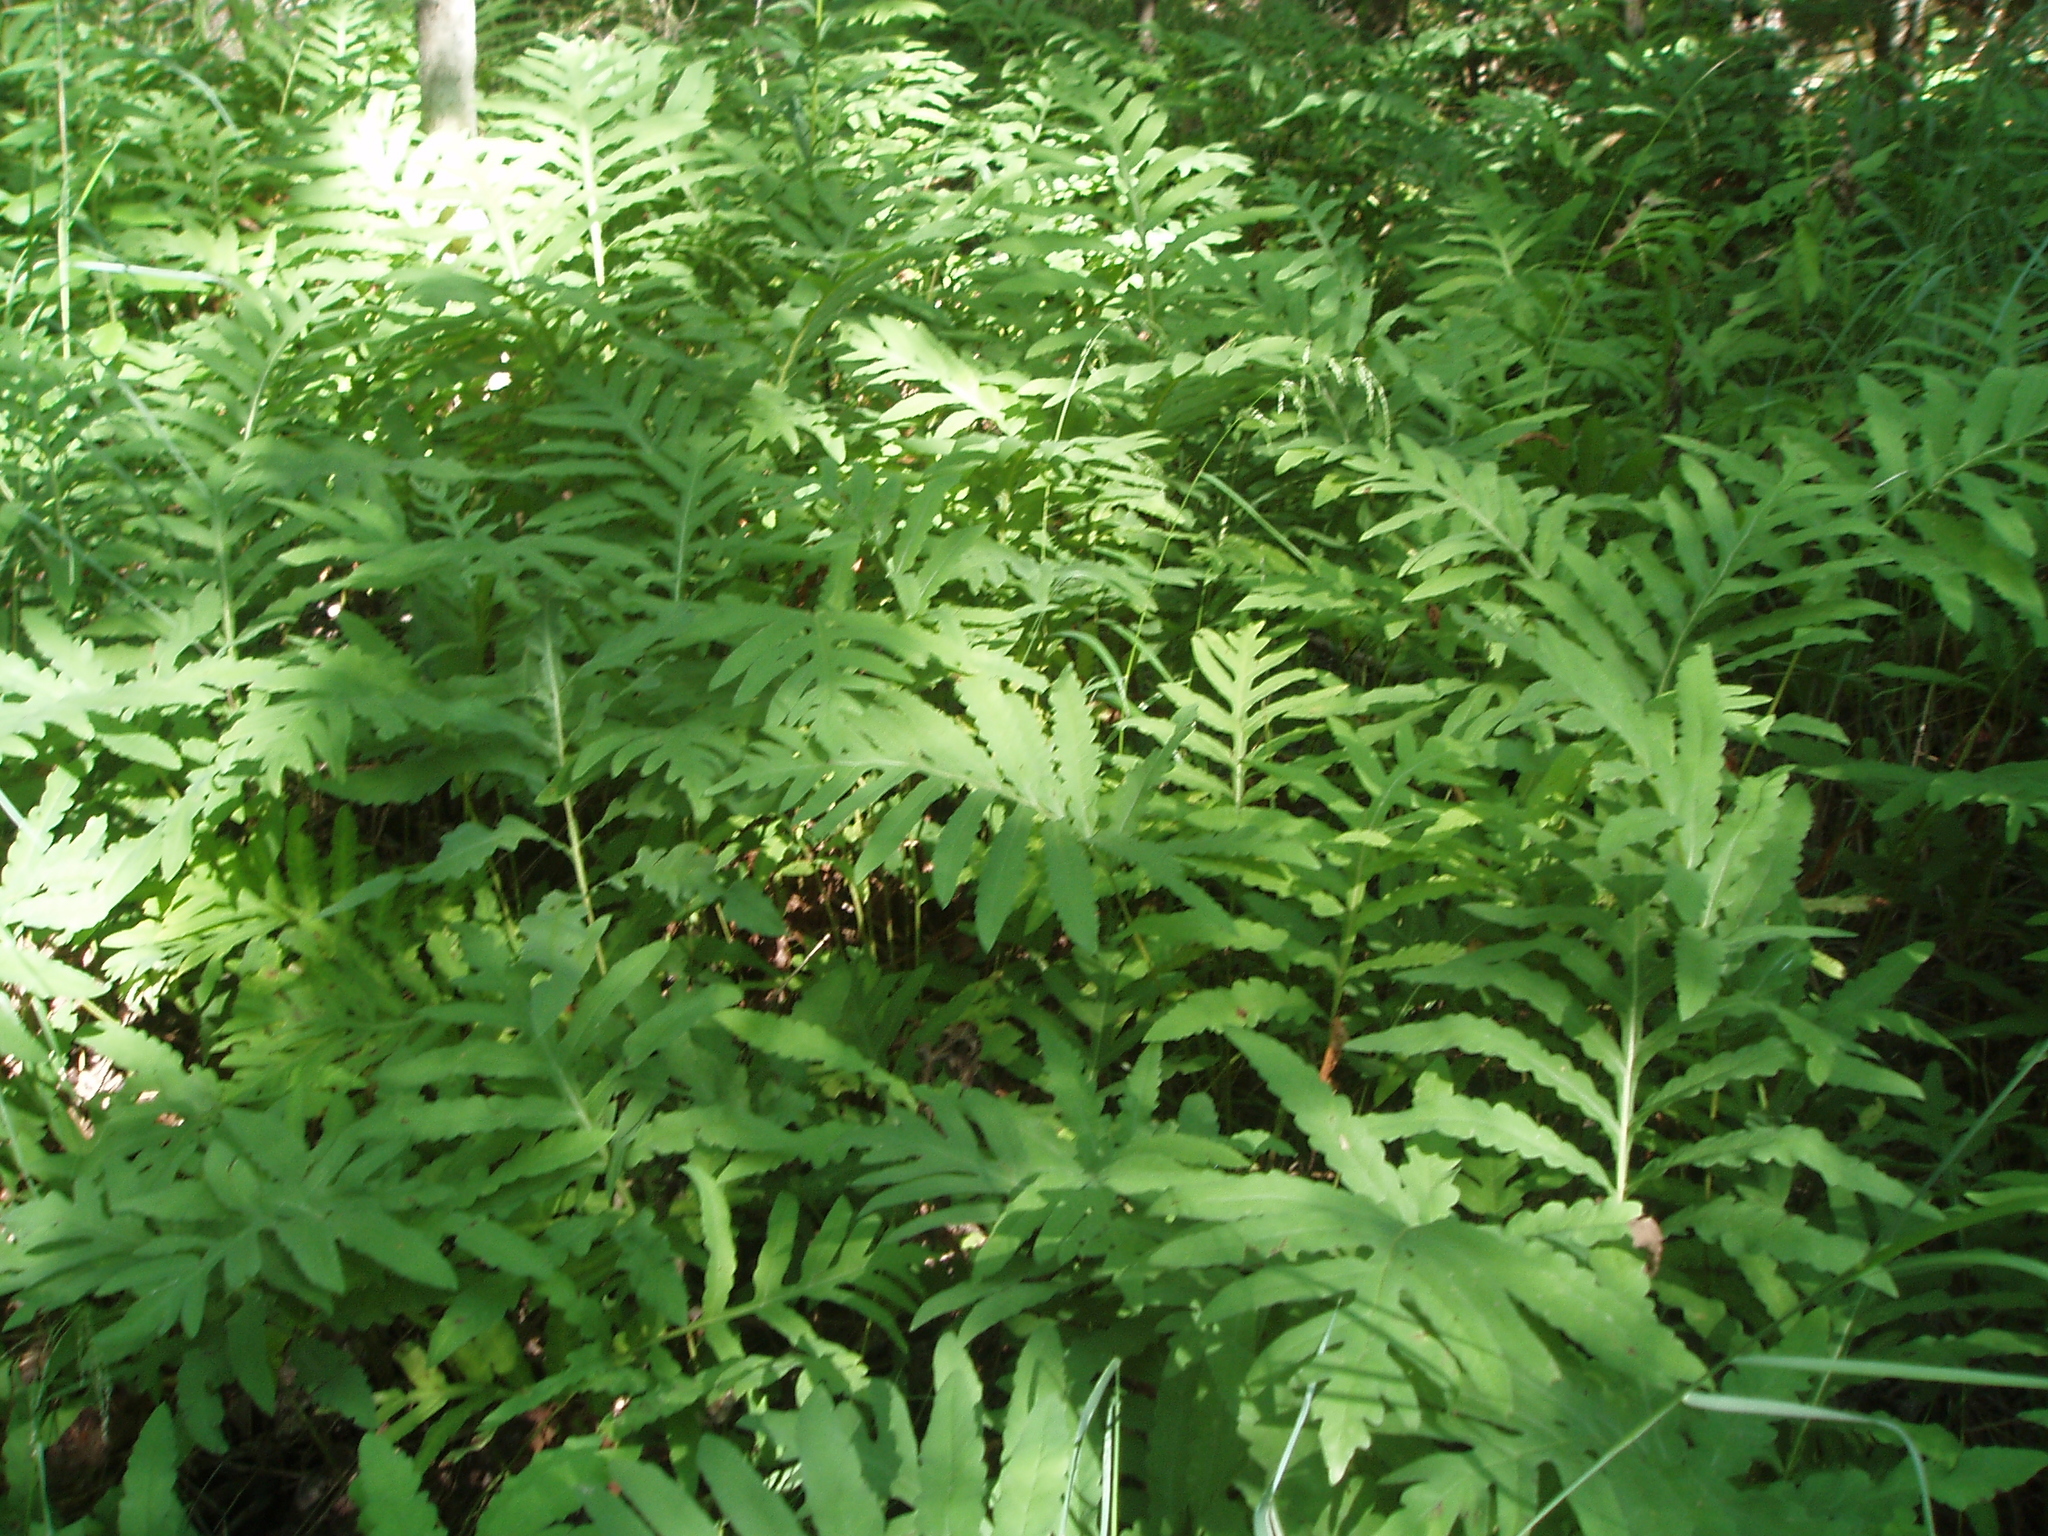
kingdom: Plantae
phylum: Tracheophyta
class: Polypodiopsida
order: Polypodiales
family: Onocleaceae
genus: Onoclea
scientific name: Onoclea sensibilis
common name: Sensitive fern
